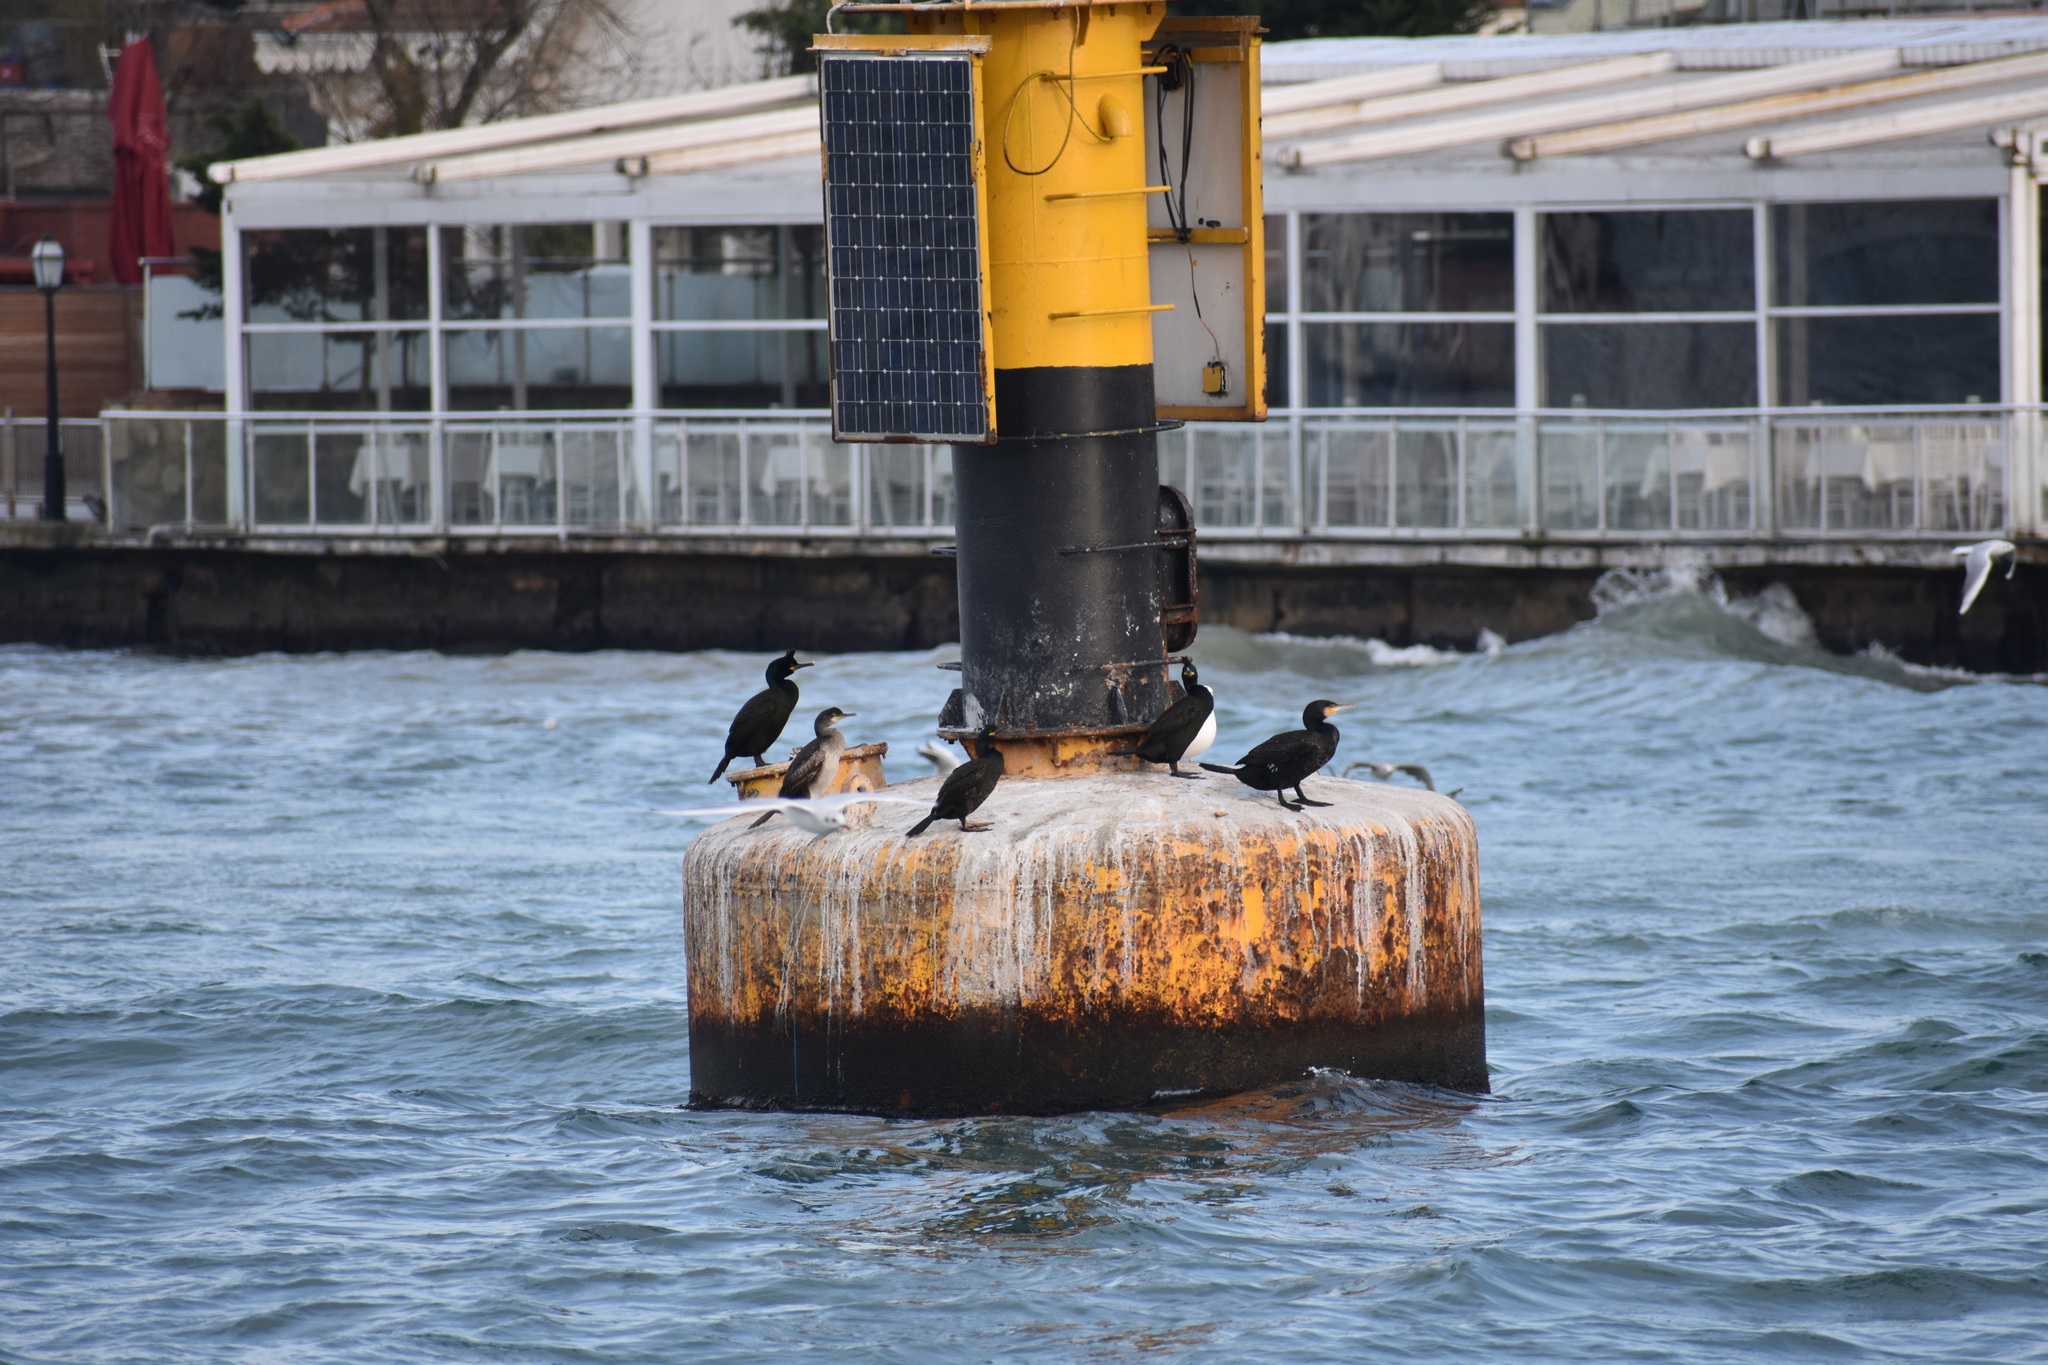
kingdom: Animalia
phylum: Chordata
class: Aves
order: Suliformes
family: Phalacrocoracidae
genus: Phalacrocorax
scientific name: Phalacrocorax aristotelis
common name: European shag
